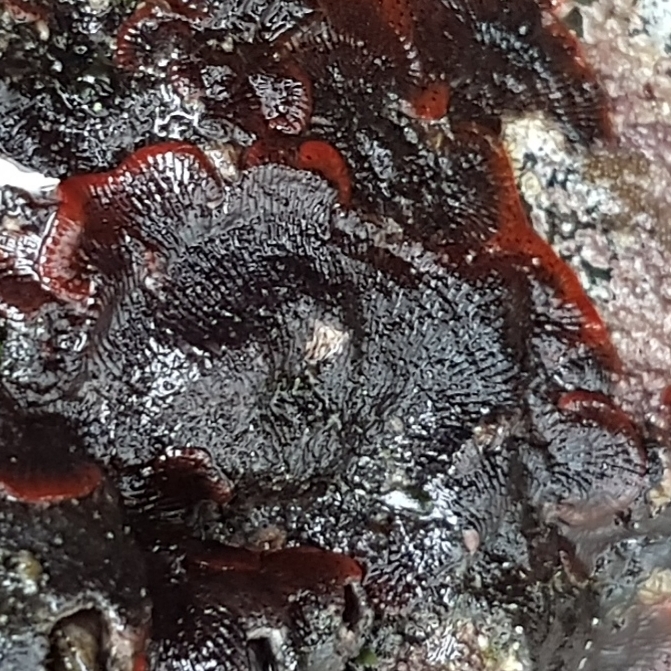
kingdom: Animalia
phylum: Bryozoa
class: Gymnolaemata
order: Cheilostomatida
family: Watersiporidae
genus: Watersipora
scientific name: Watersipora subatra
